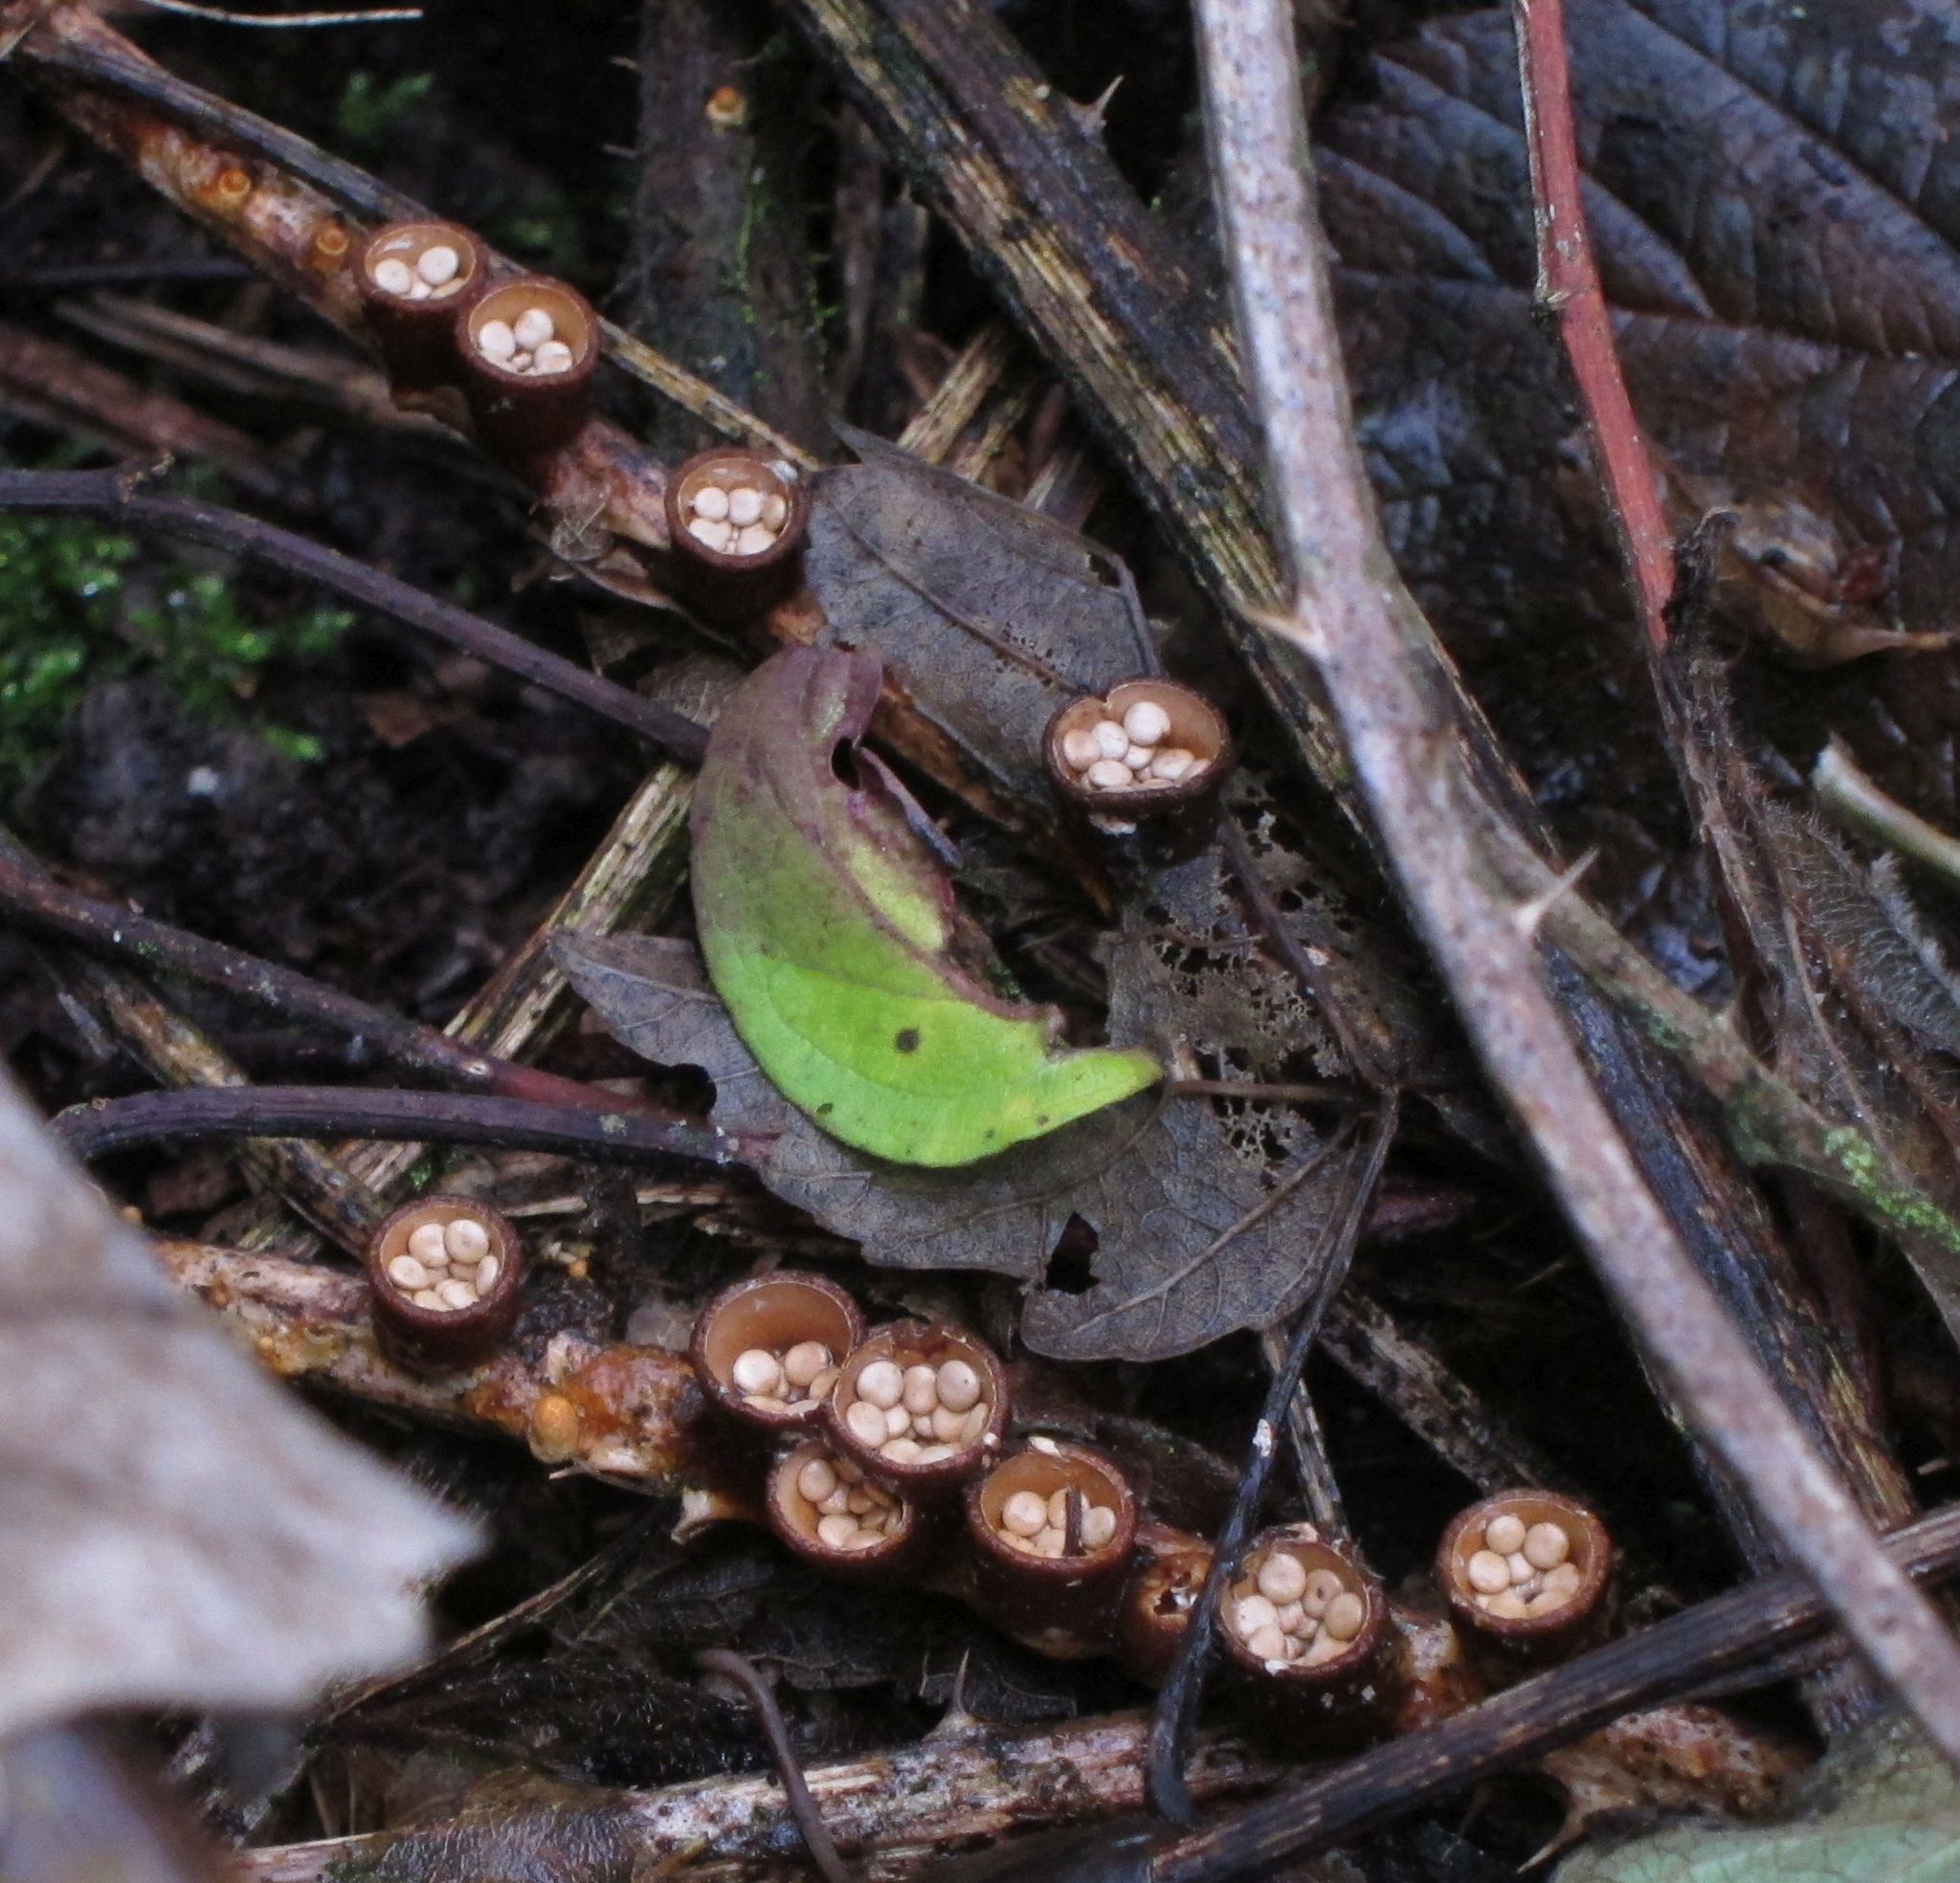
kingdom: Fungi
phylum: Basidiomycota
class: Agaricomycetes
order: Agaricales
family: Nidulariaceae
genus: Crucibulum
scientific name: Crucibulum laeve
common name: Common bird's nest
